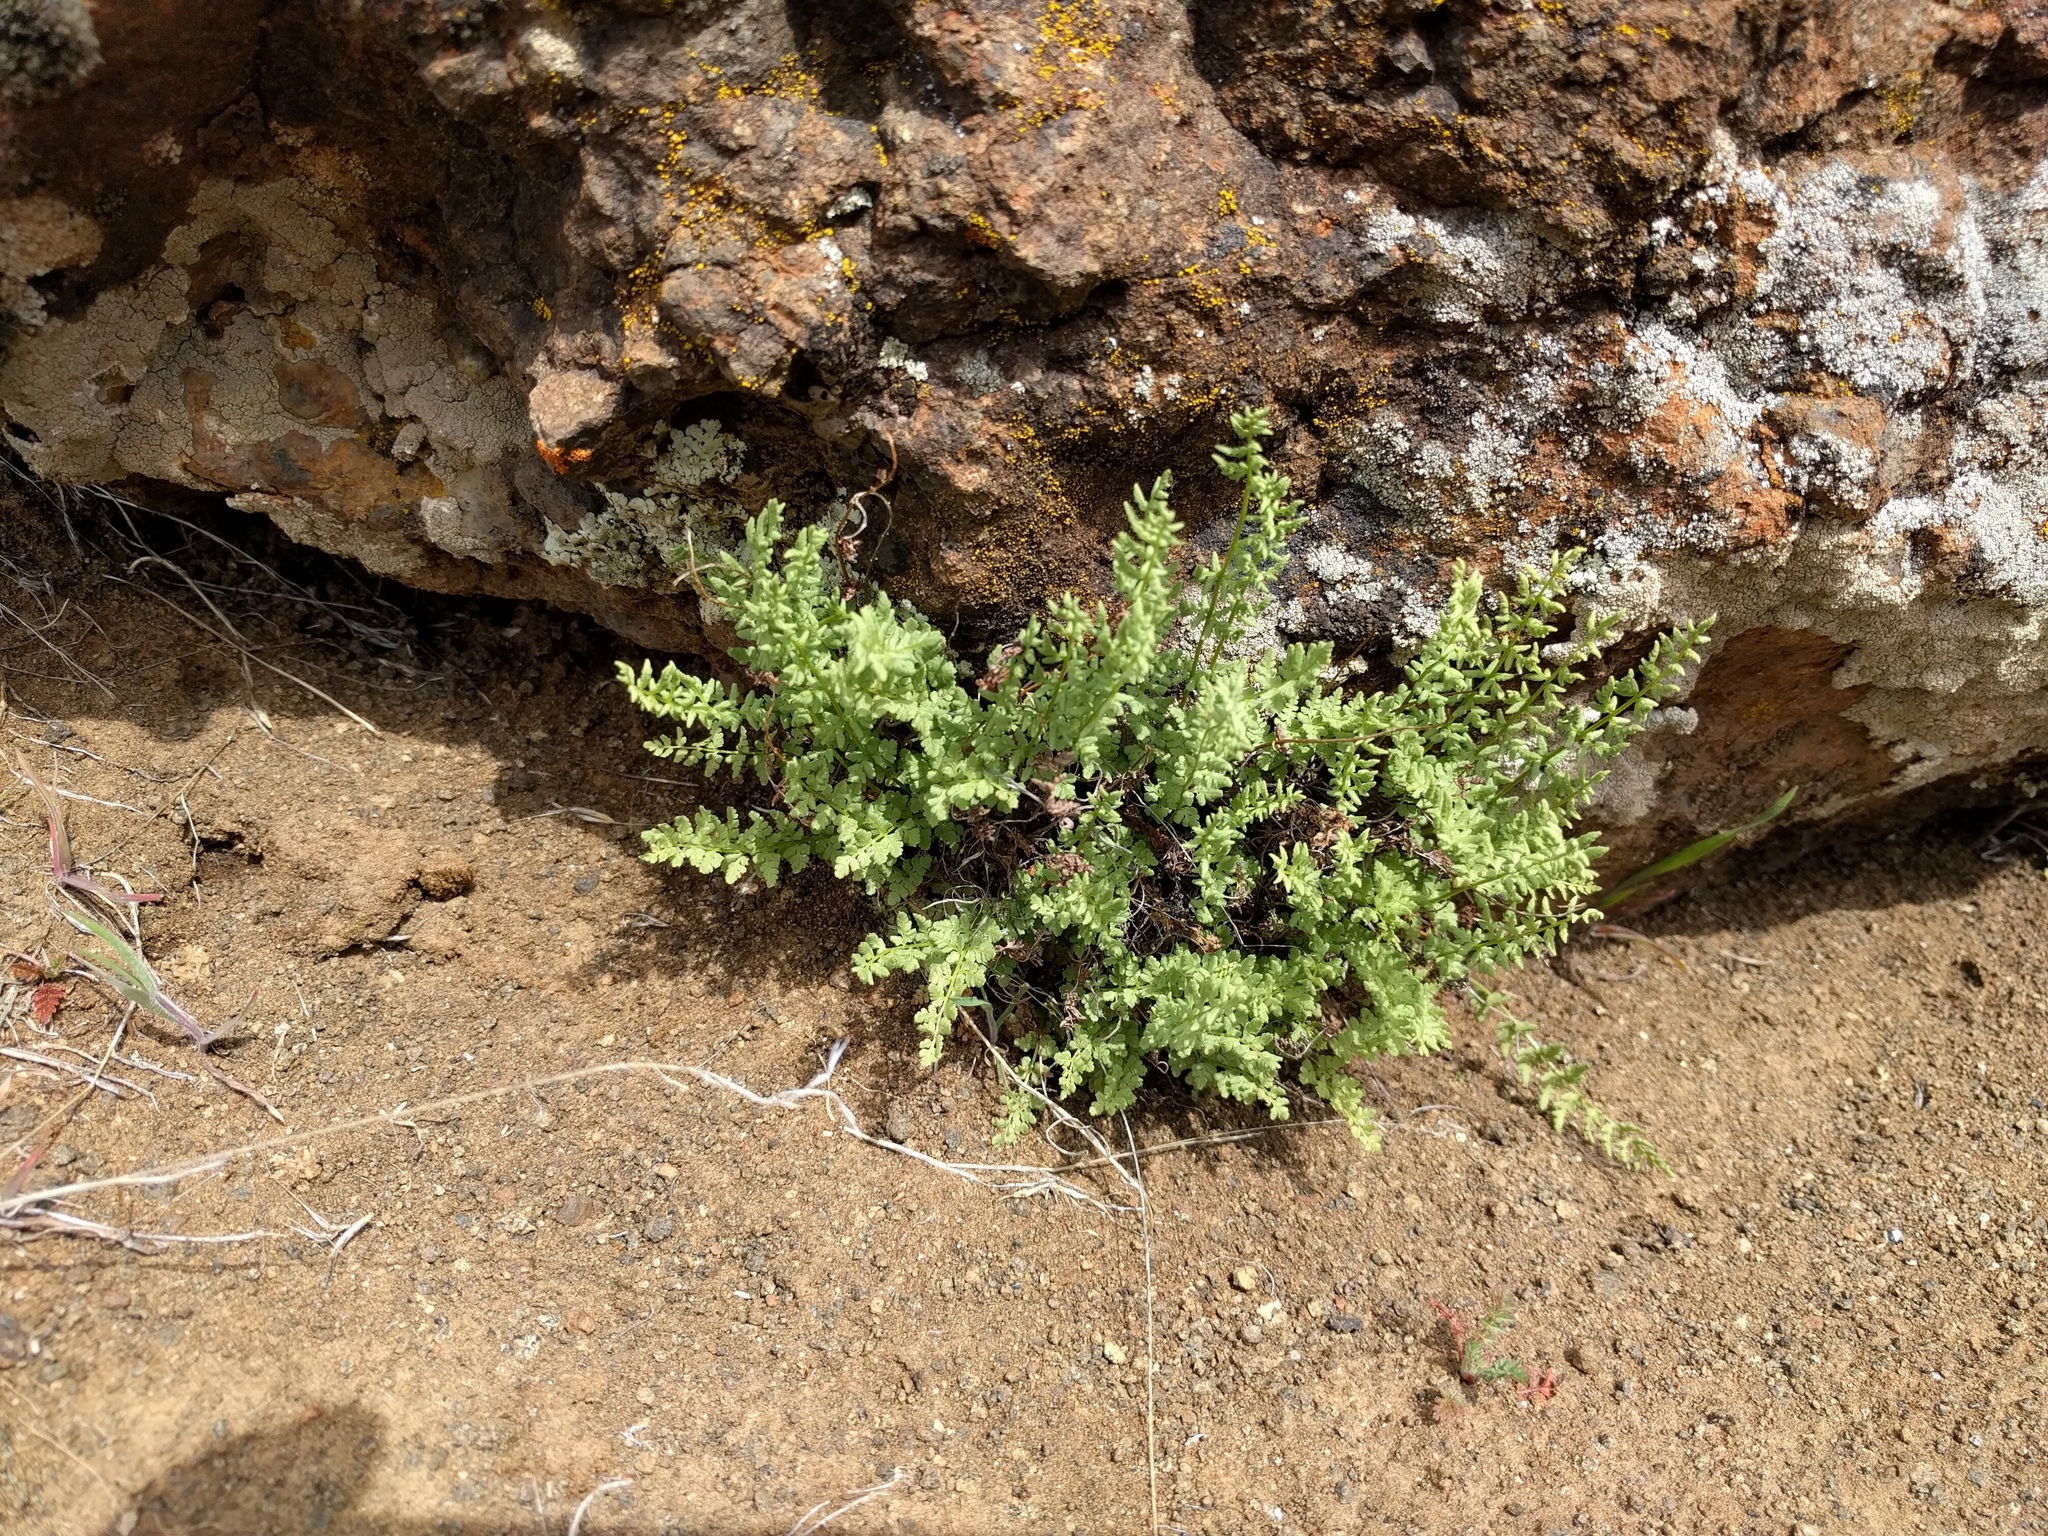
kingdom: Plantae
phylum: Tracheophyta
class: Polypodiopsida
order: Polypodiales
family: Woodsiaceae
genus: Physematium
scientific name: Physematium oreganum
